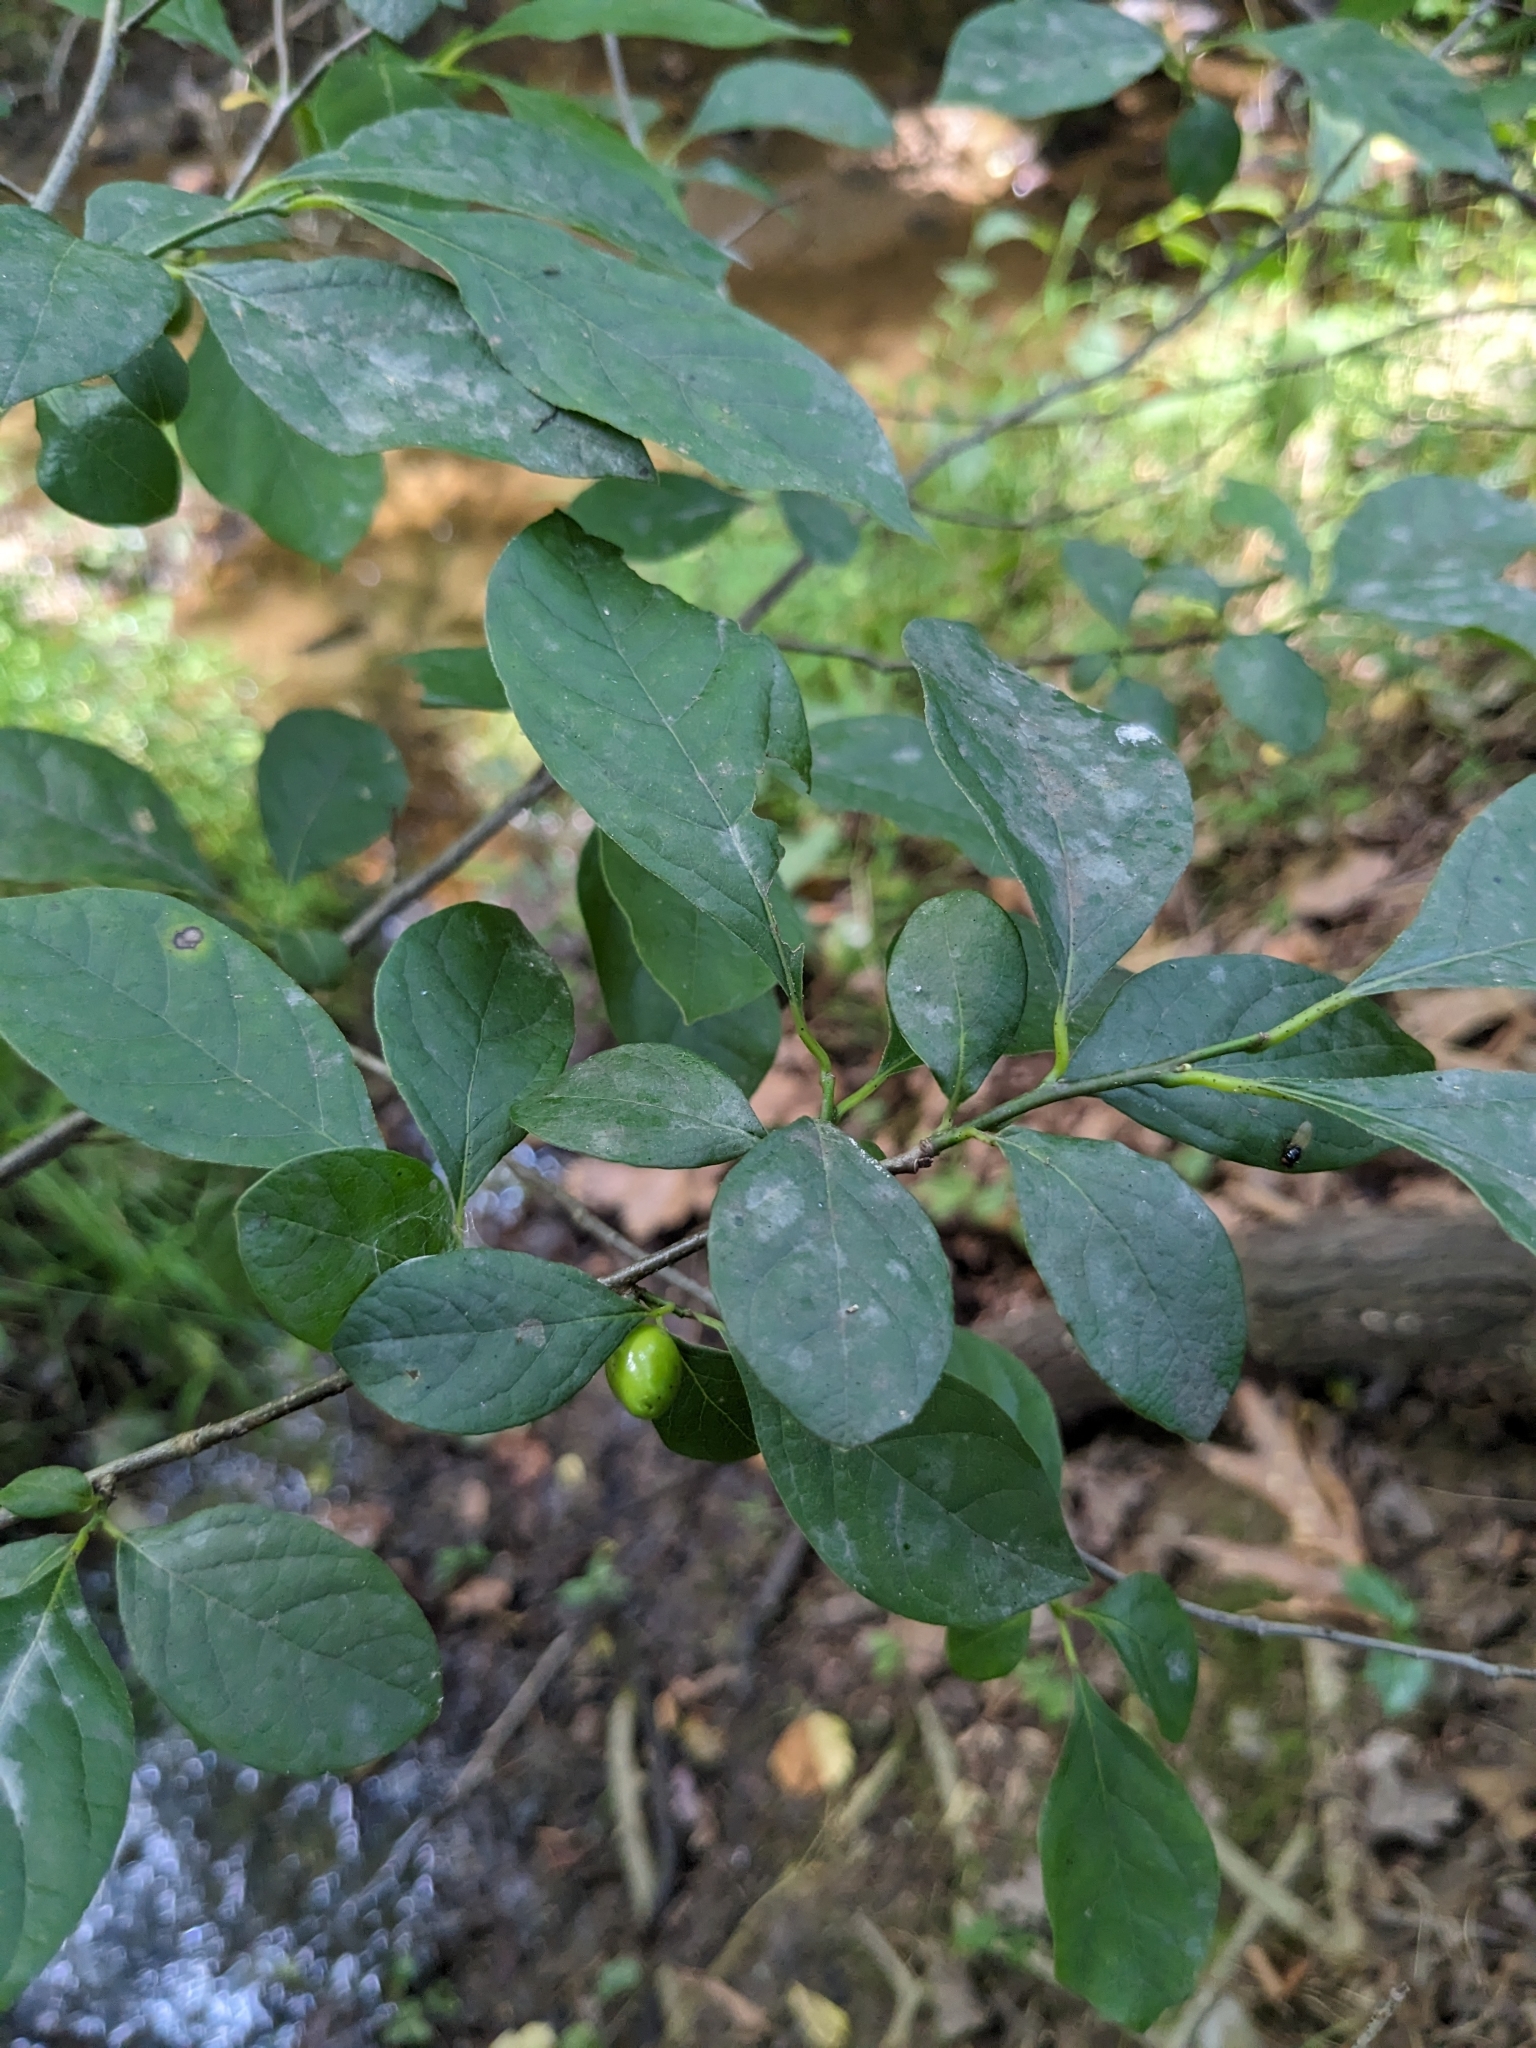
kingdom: Plantae
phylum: Tracheophyta
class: Magnoliopsida
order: Laurales
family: Lauraceae
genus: Lindera
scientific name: Lindera benzoin
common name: Spicebush
